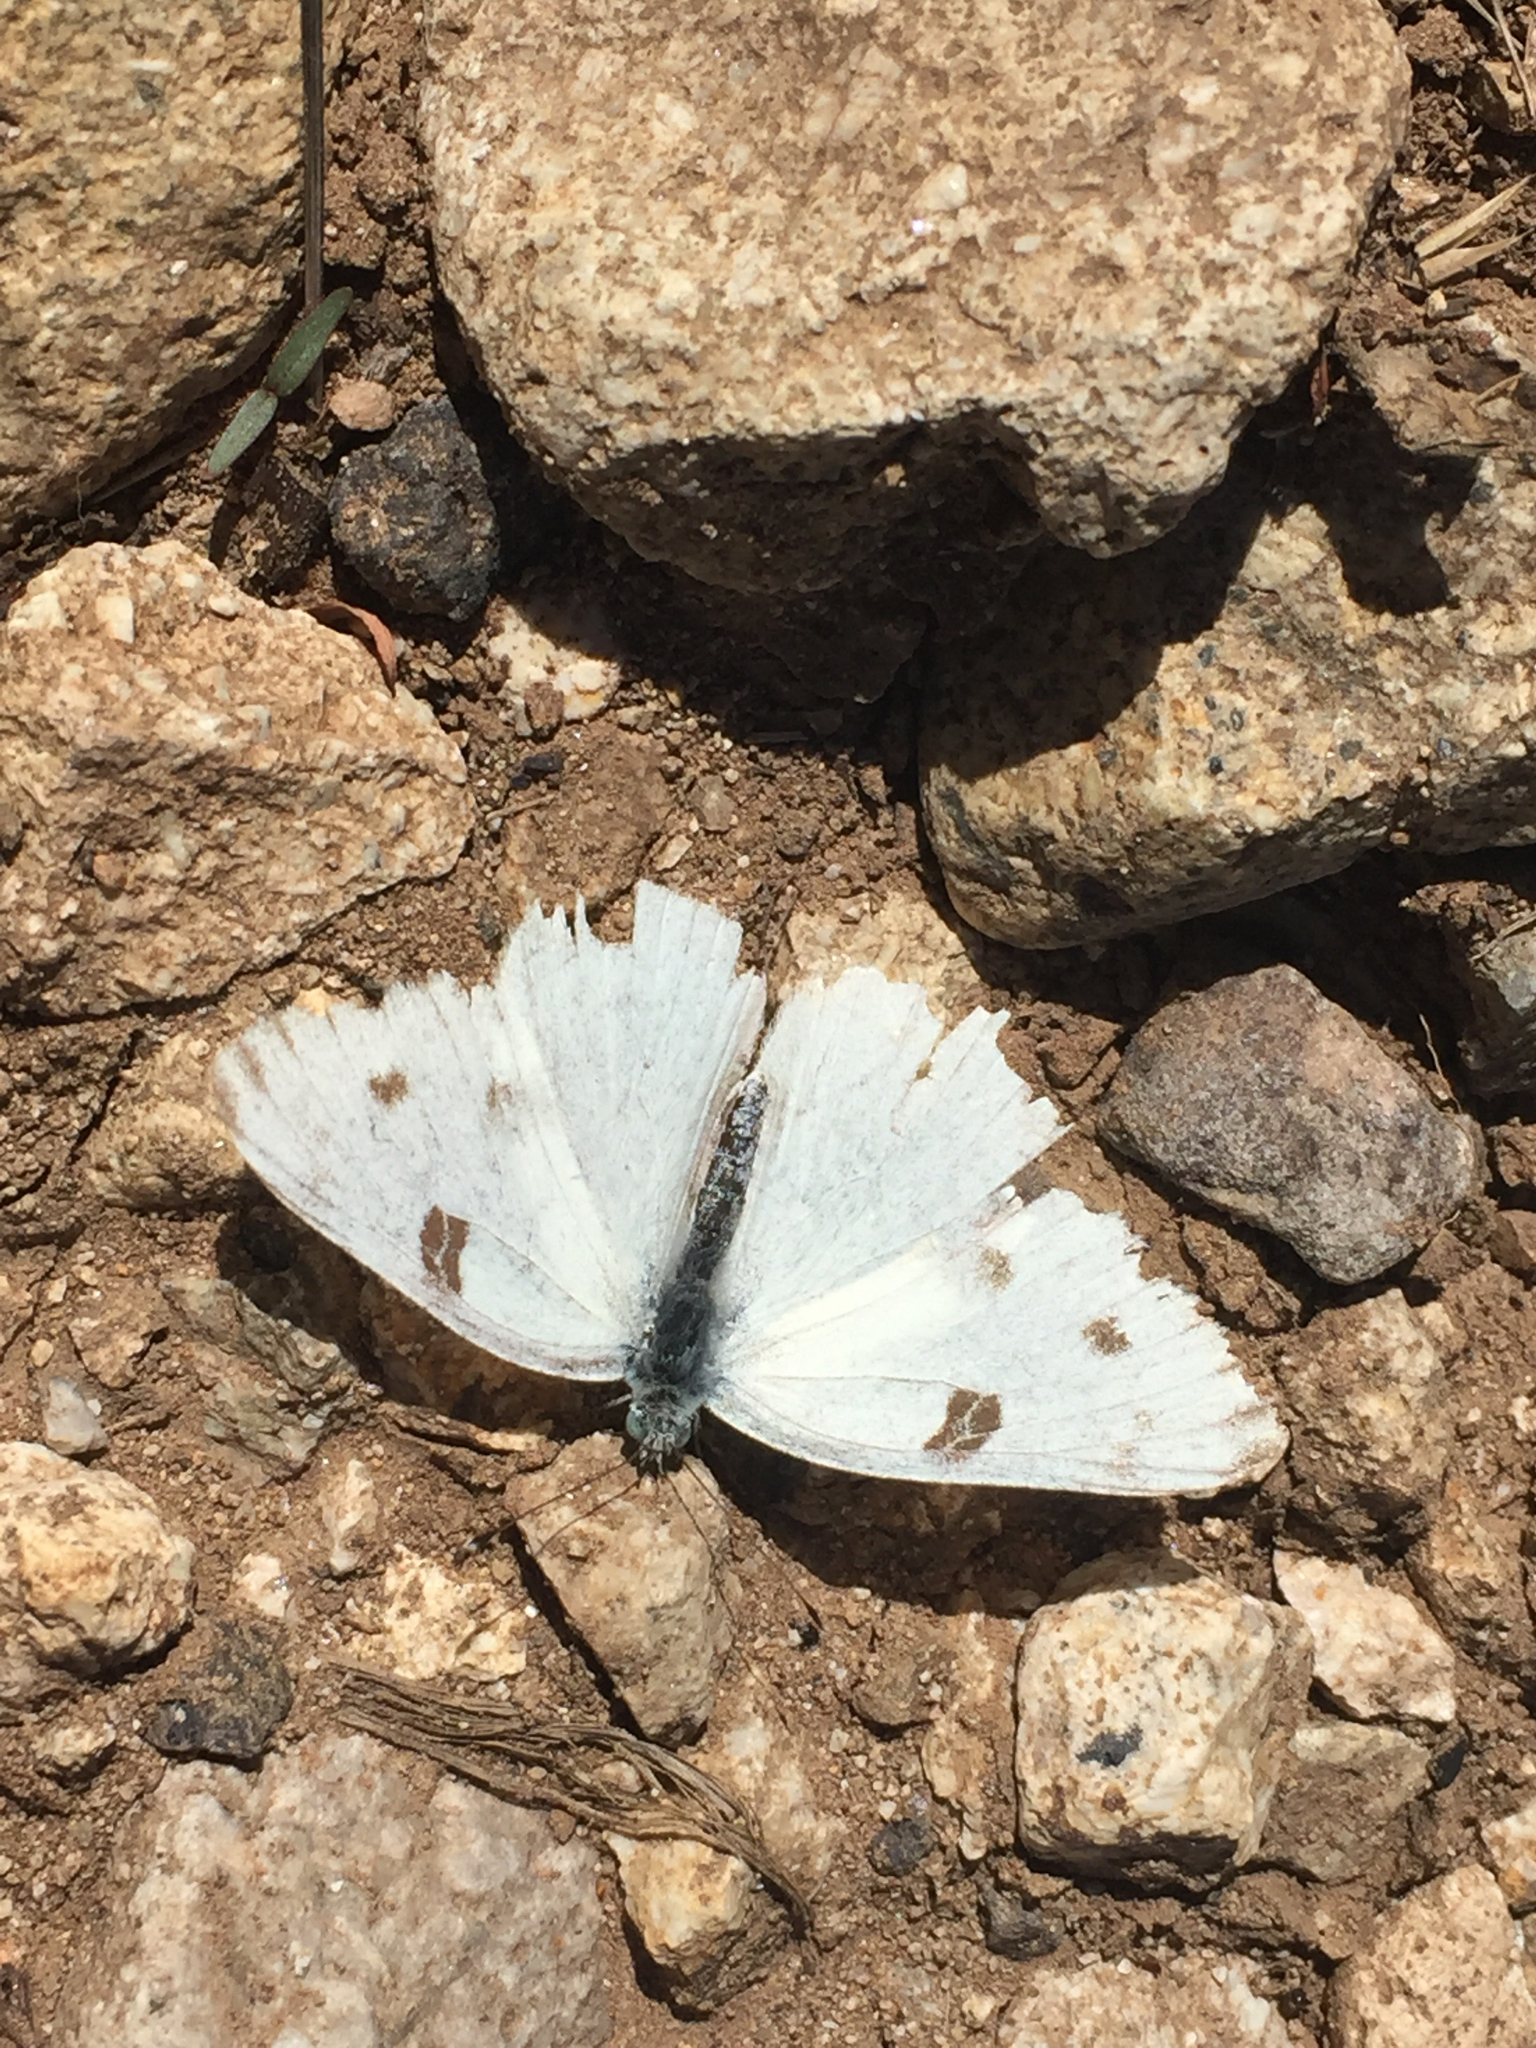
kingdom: Animalia
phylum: Arthropoda
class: Insecta
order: Lepidoptera
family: Pieridae
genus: Pontia
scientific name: Pontia protodice
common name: Checkered white
